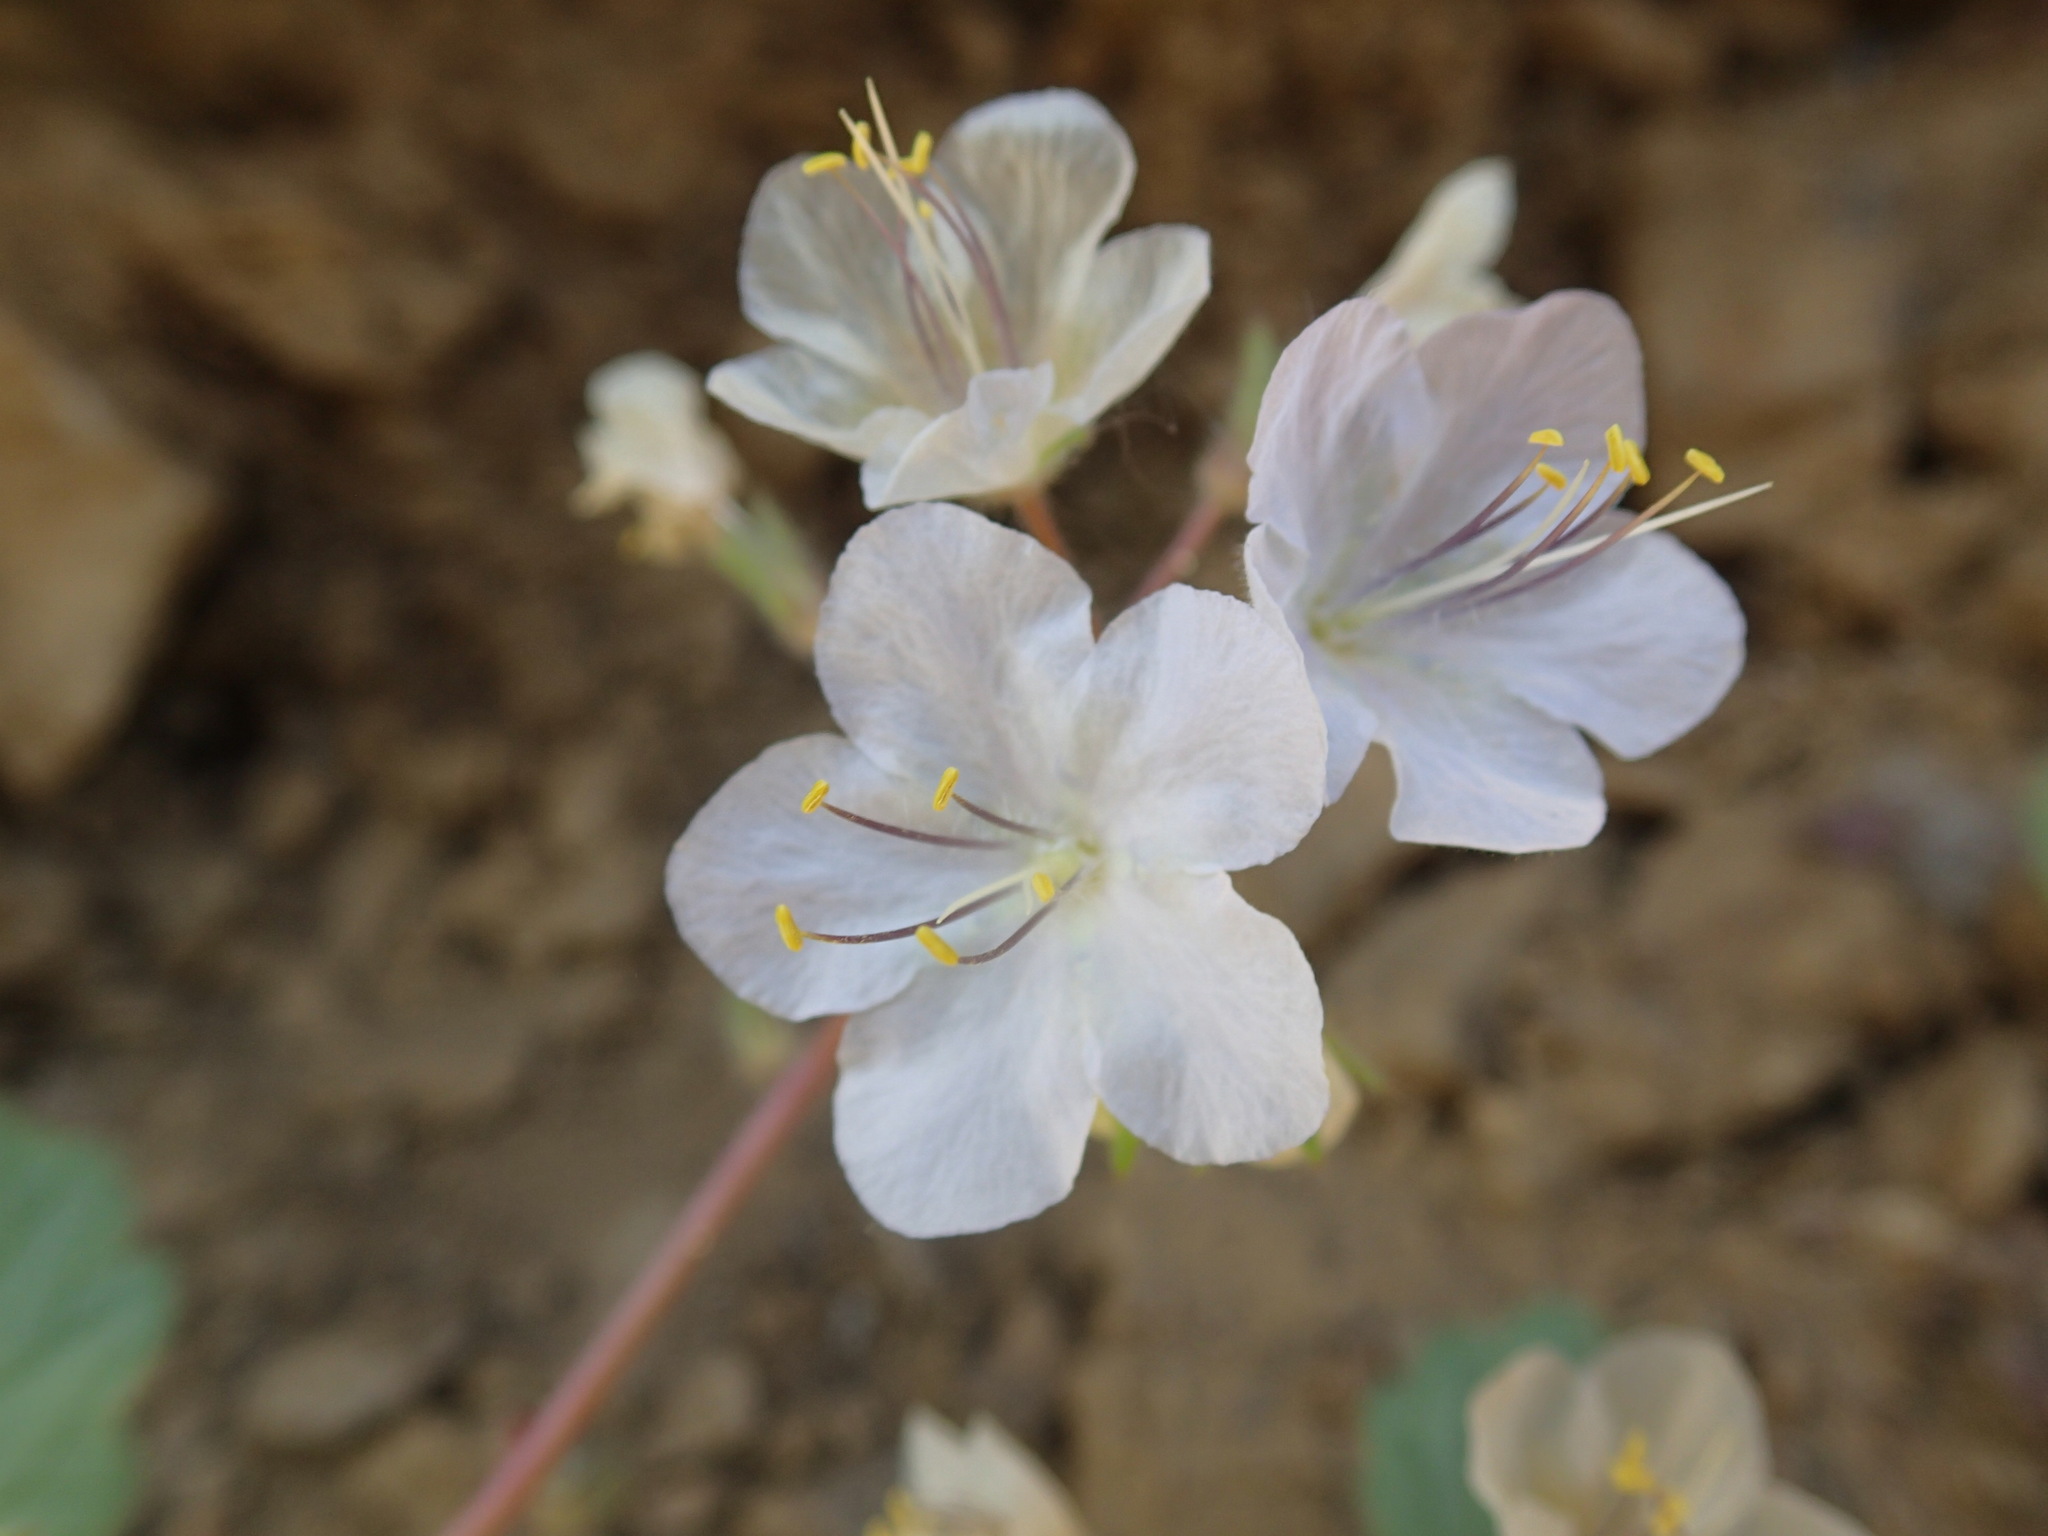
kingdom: Plantae
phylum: Tracheophyta
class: Magnoliopsida
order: Boraginales
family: Hydrophyllaceae
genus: Phacelia
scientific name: Phacelia longipes
